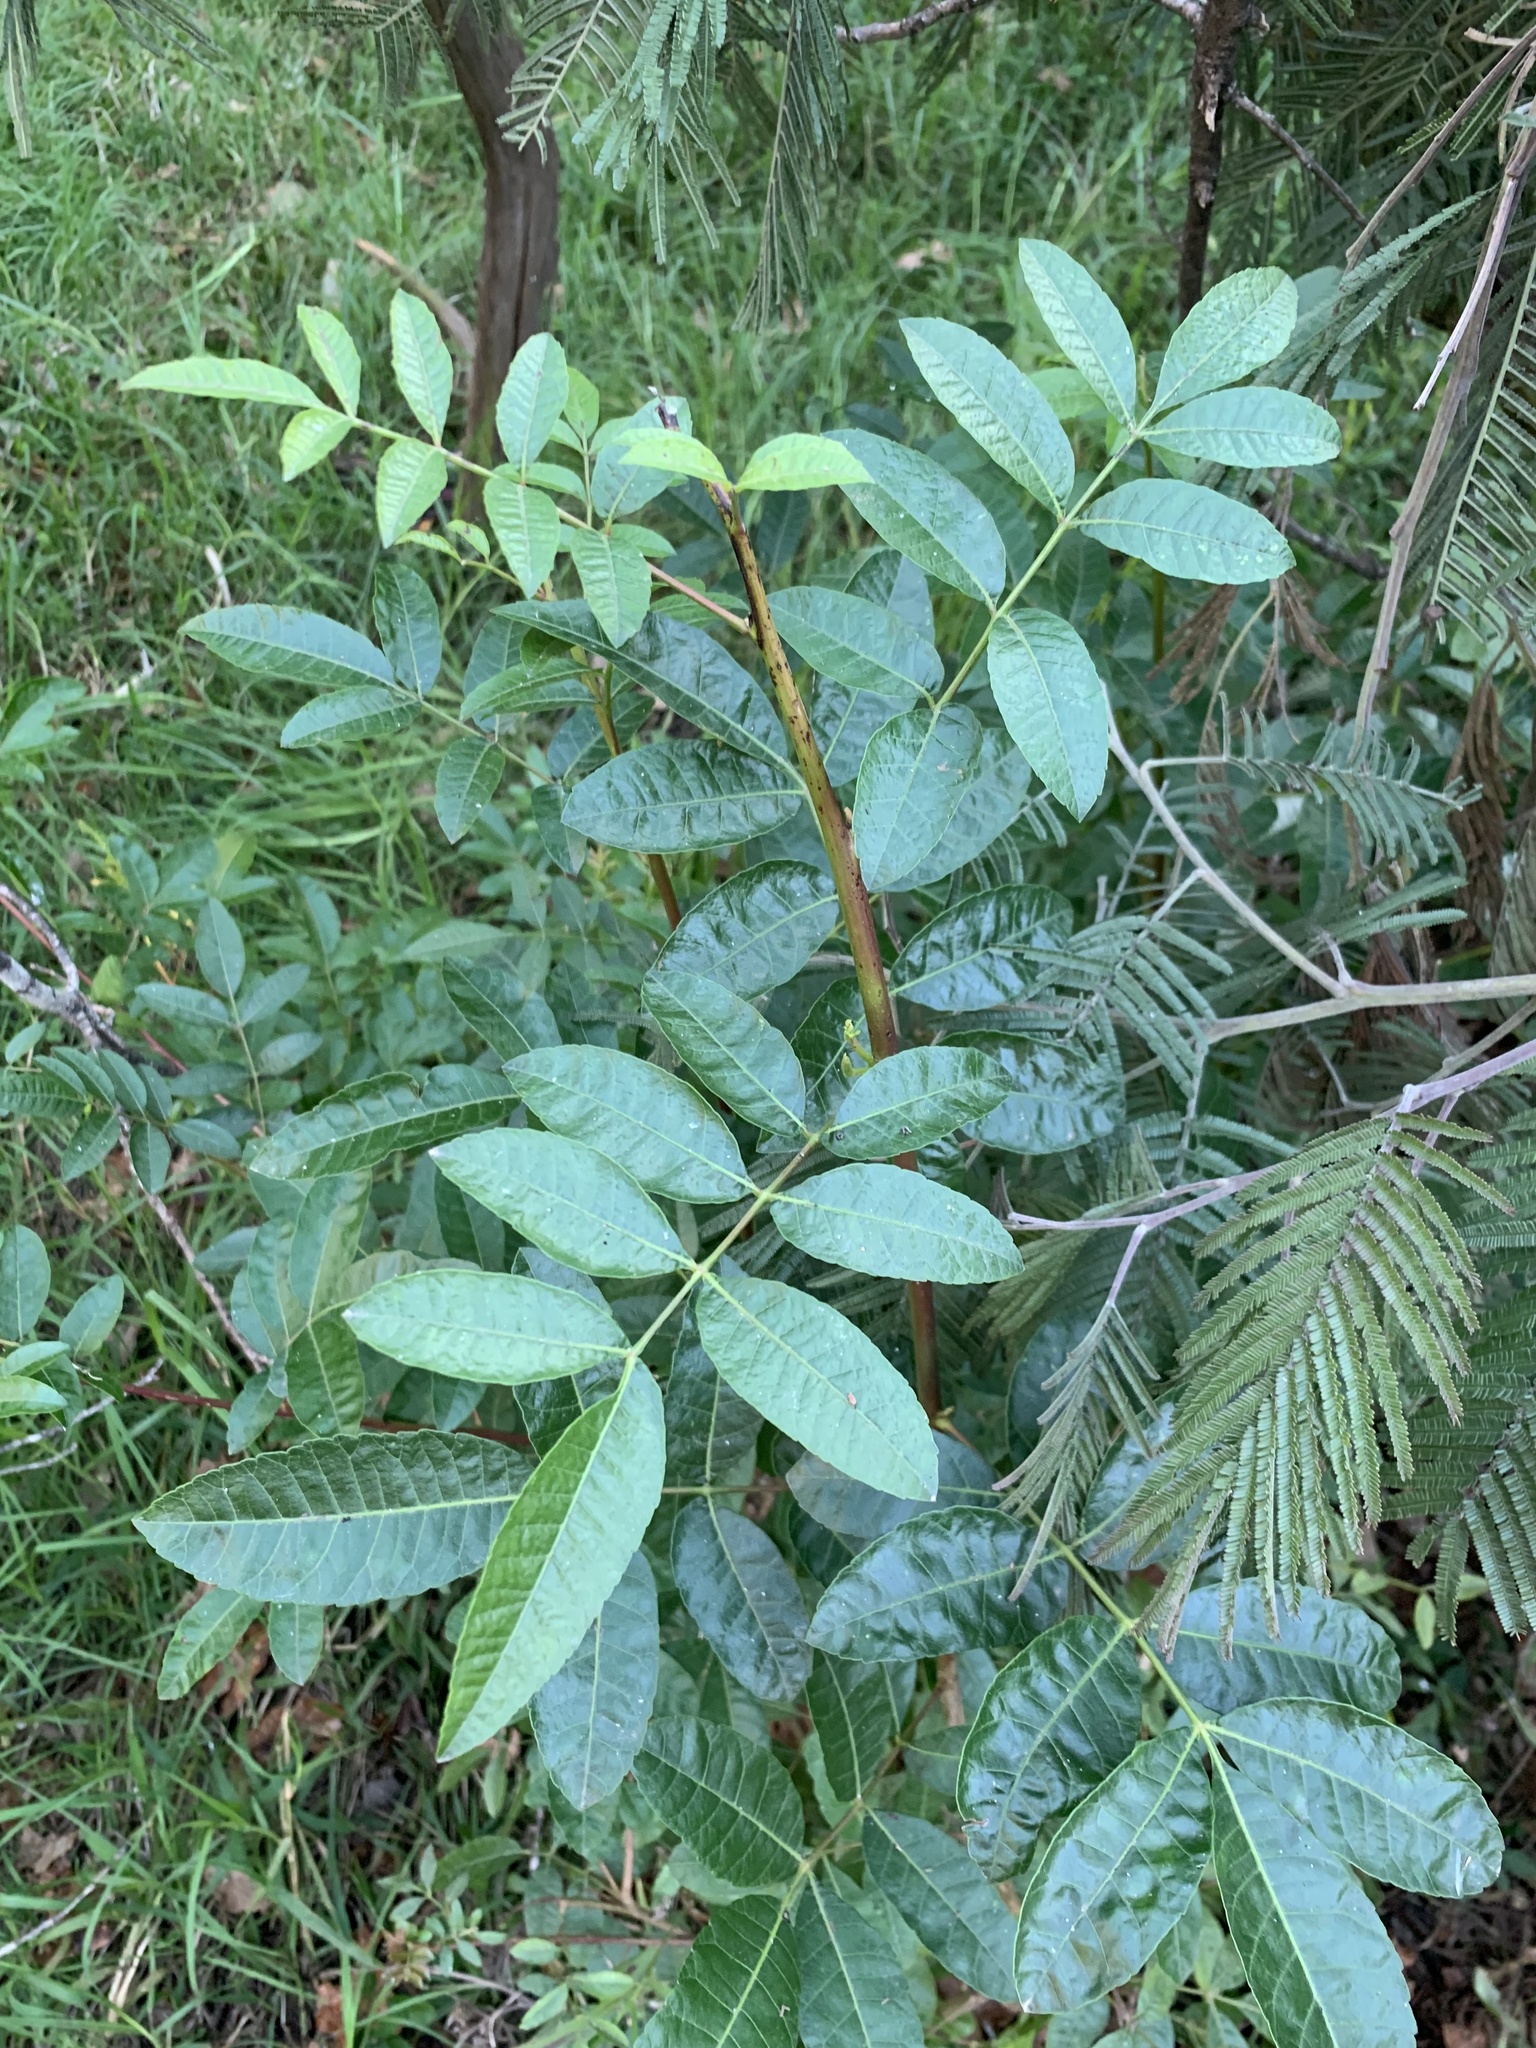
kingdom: Plantae
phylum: Tracheophyta
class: Magnoliopsida
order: Sapindales
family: Anacardiaceae
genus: Schinus
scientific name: Schinus terebinthifolia
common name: Brazilian peppertree
